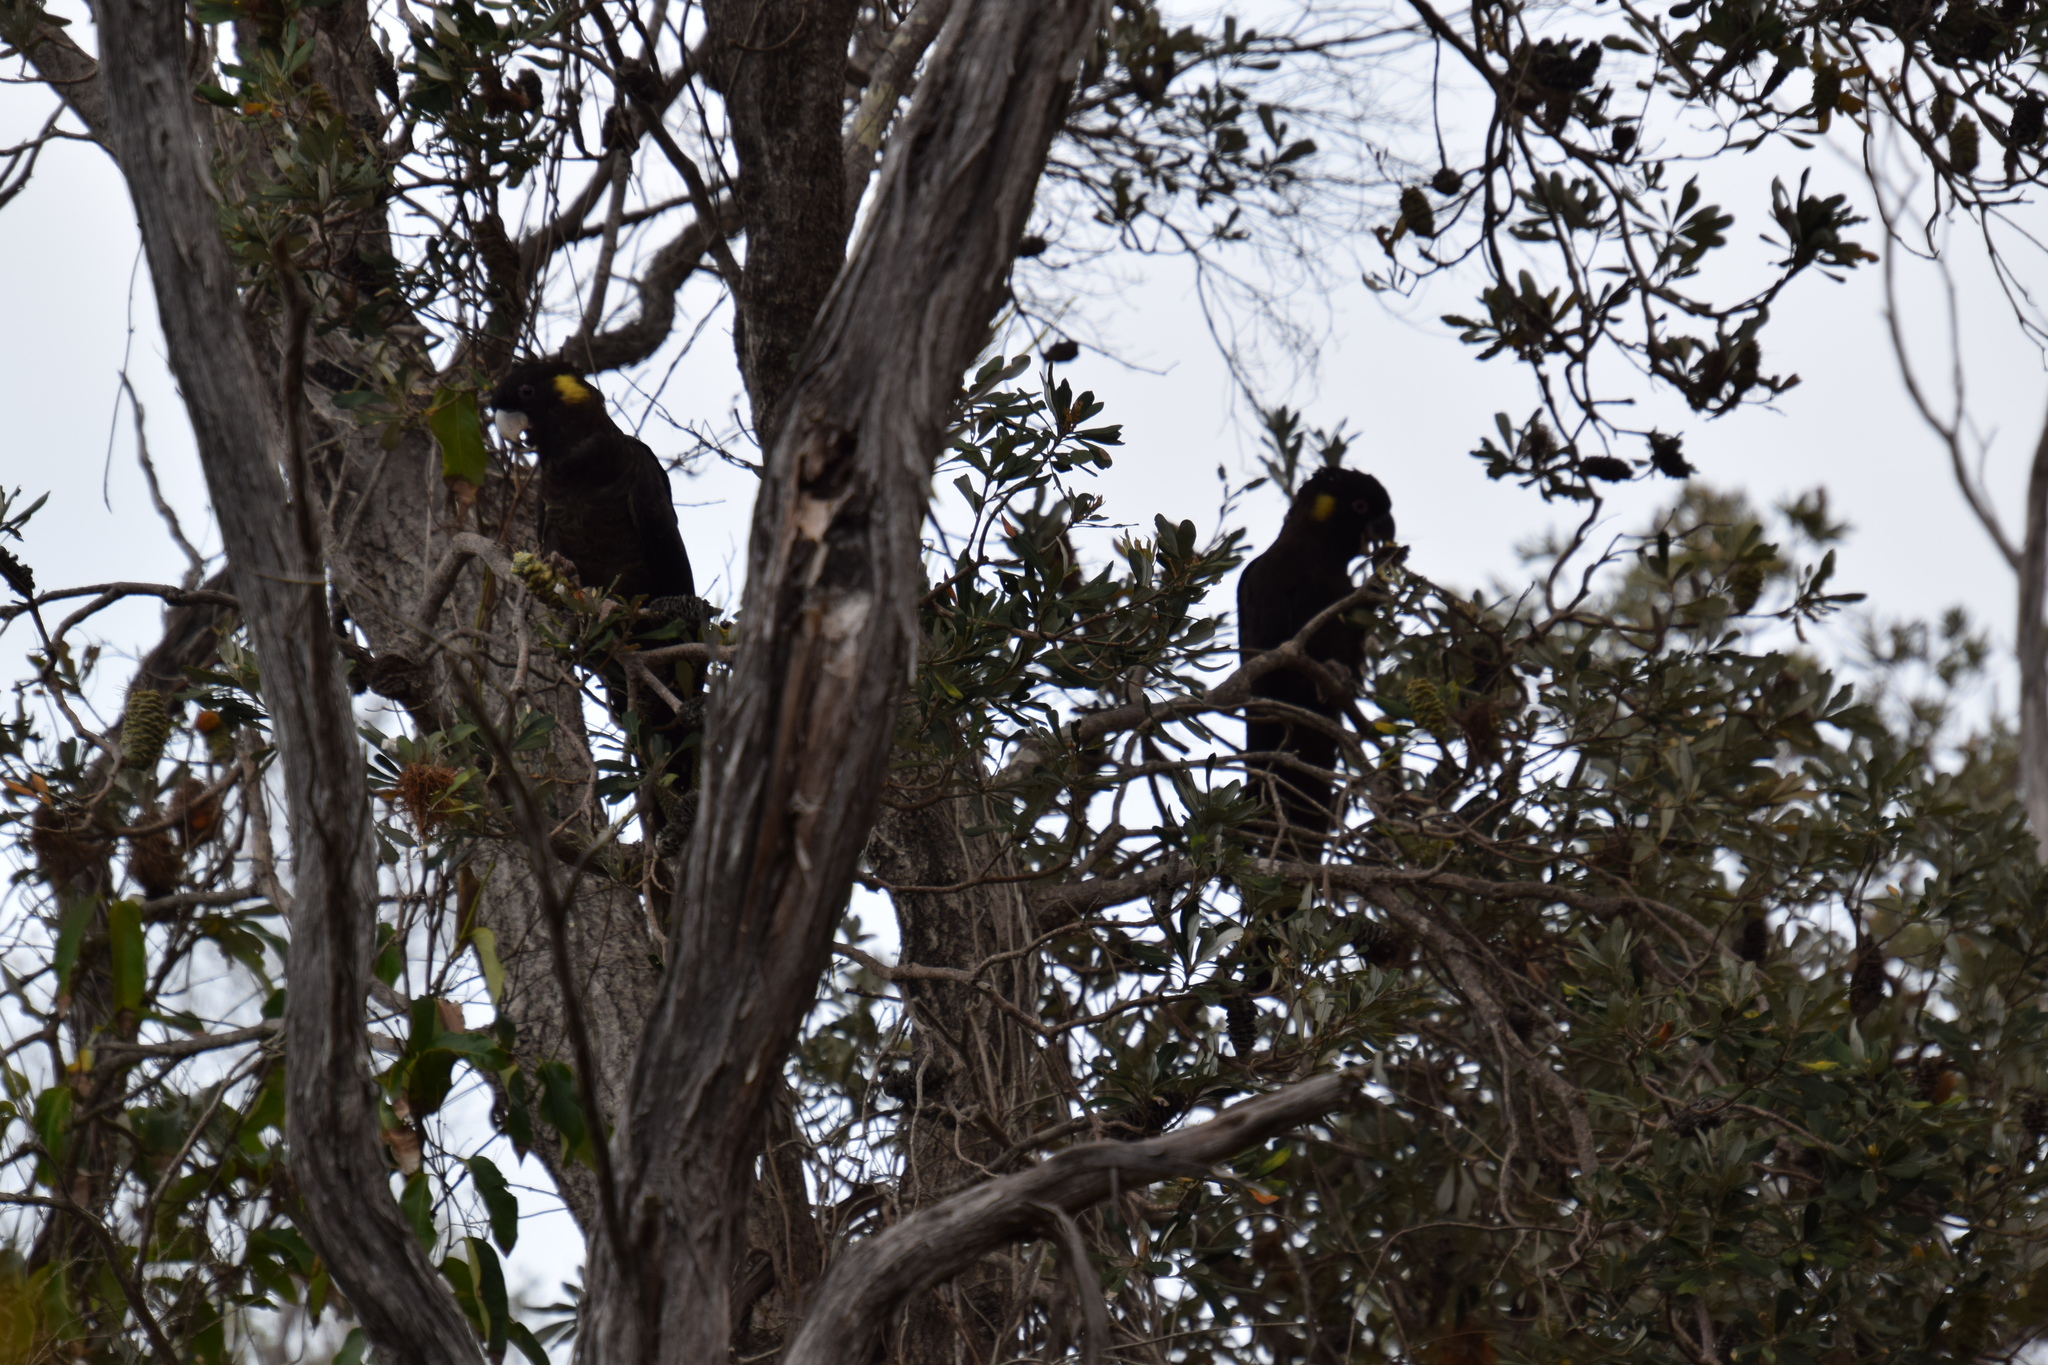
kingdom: Animalia
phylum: Chordata
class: Aves
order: Psittaciformes
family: Cacatuidae
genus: Zanda
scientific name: Zanda funerea
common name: Yellow-tailed black-cockatoo
